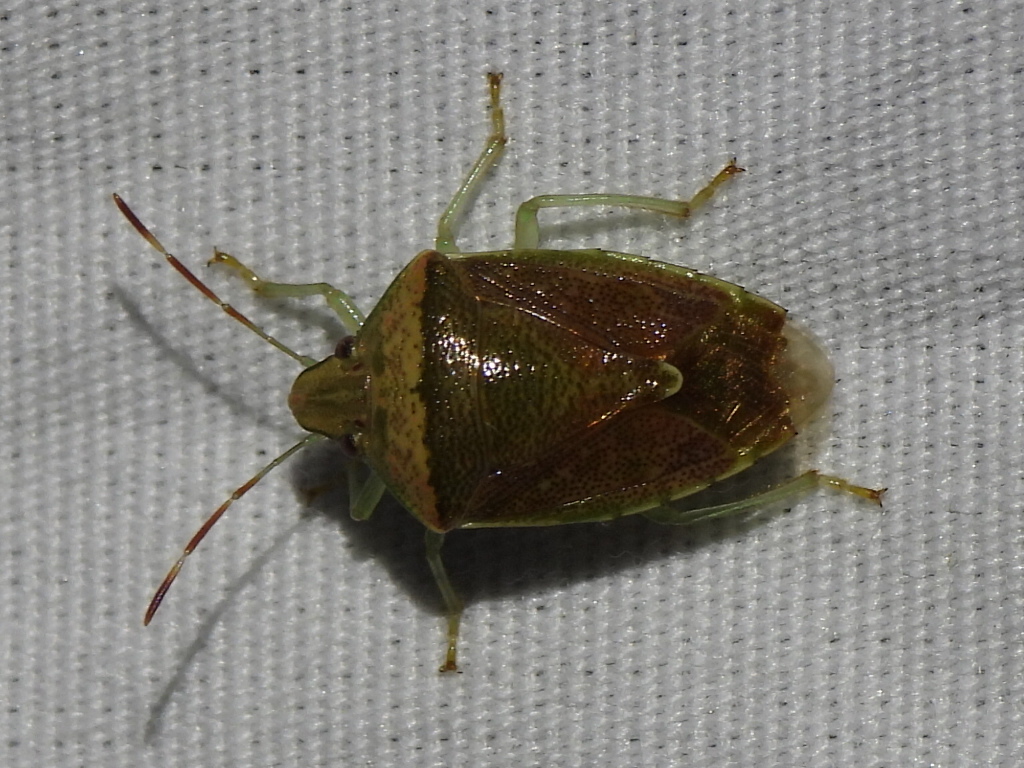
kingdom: Animalia
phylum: Arthropoda
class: Insecta
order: Hemiptera
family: Pentatomidae
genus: Banasa
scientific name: Banasa calva
